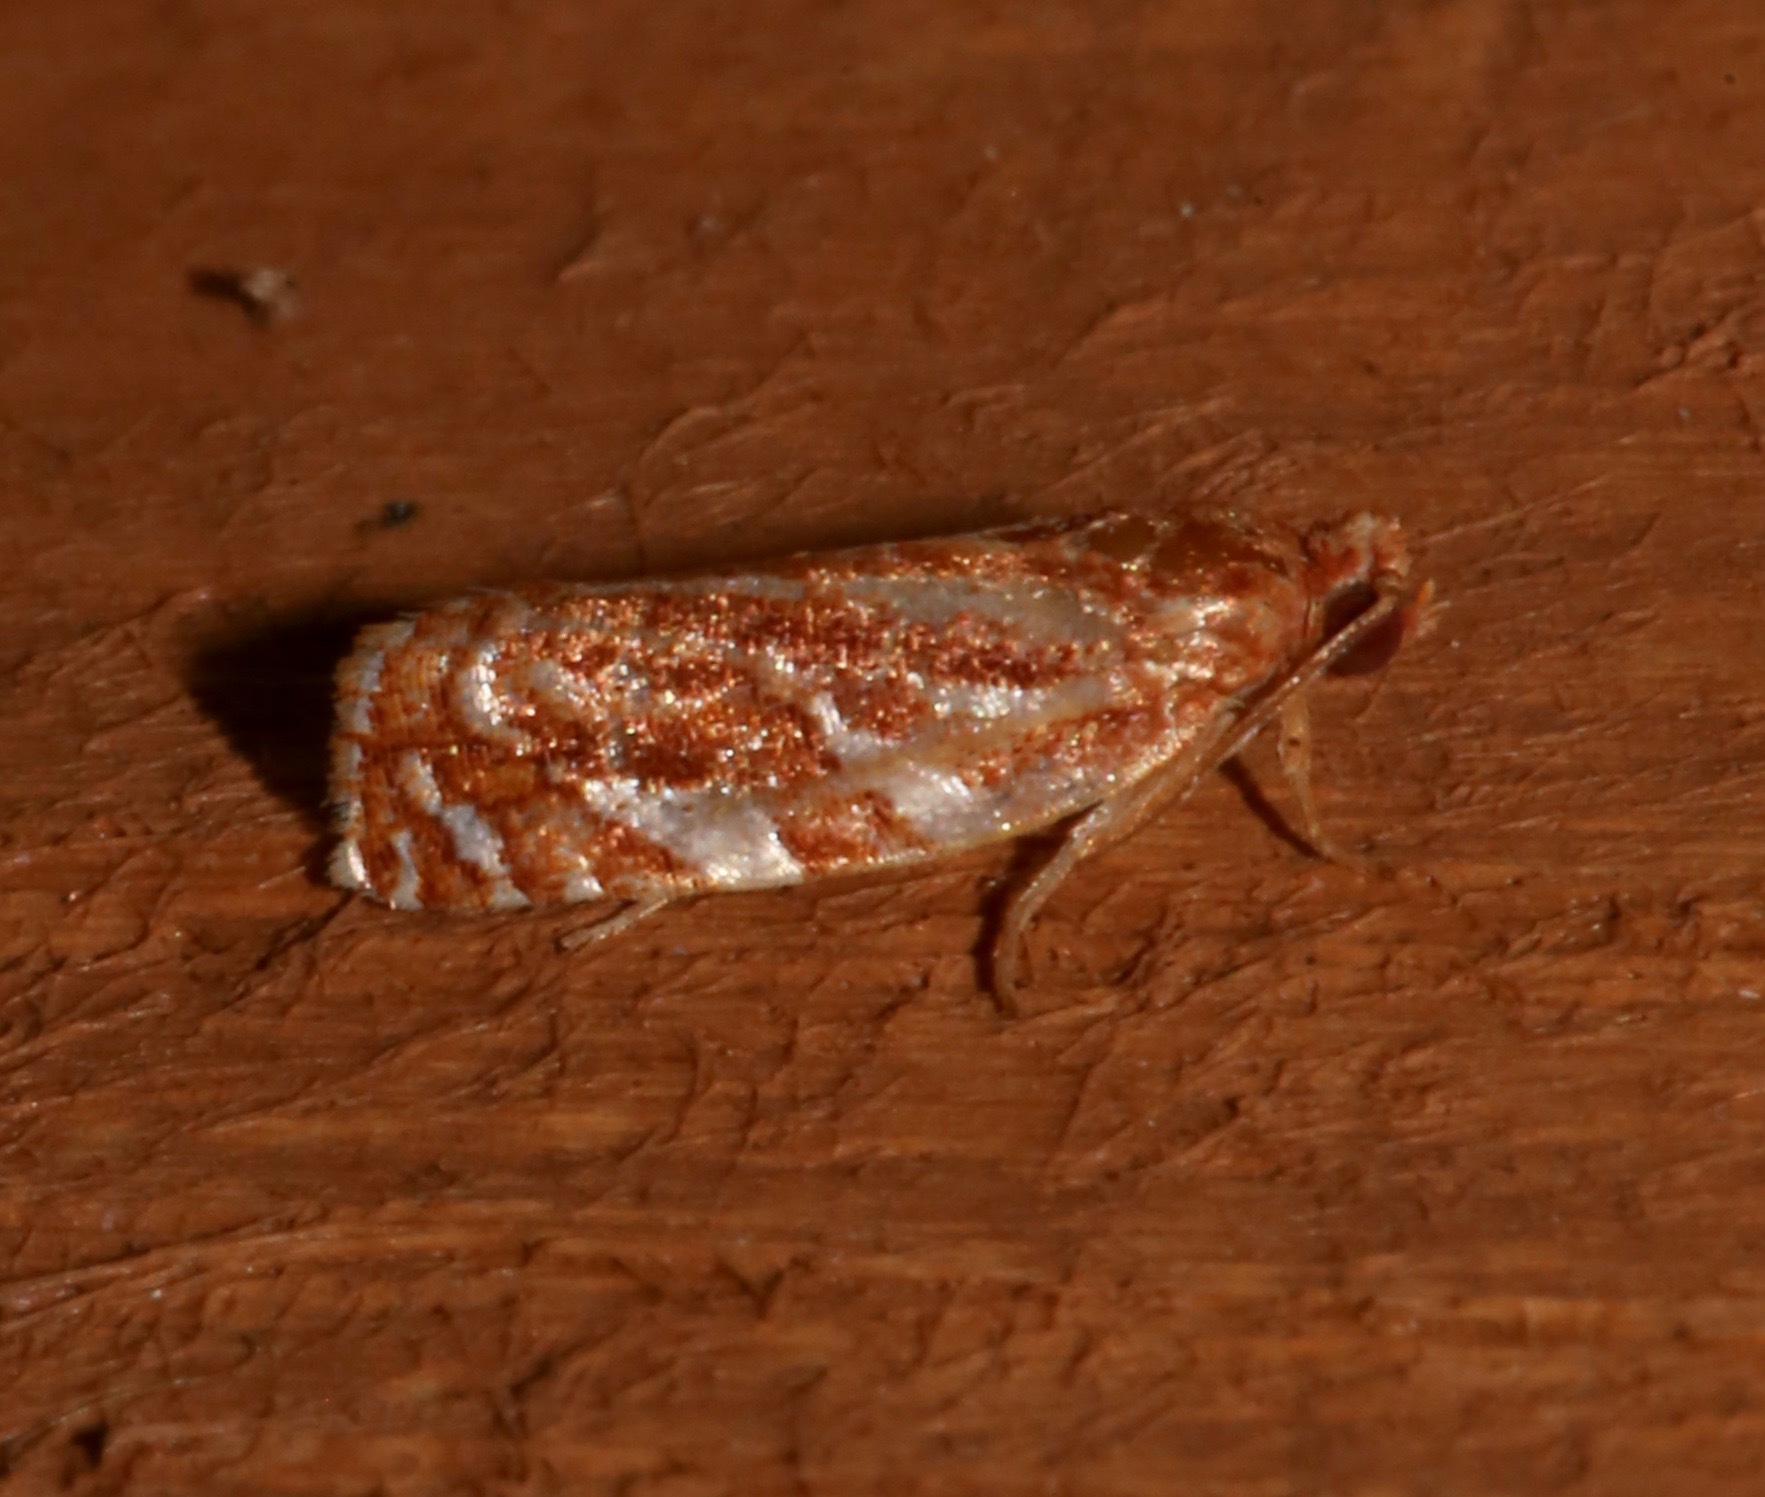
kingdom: Animalia
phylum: Arthropoda
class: Insecta
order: Lepidoptera
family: Tortricidae
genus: Choristoneura
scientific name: Choristoneura argentifasciata
